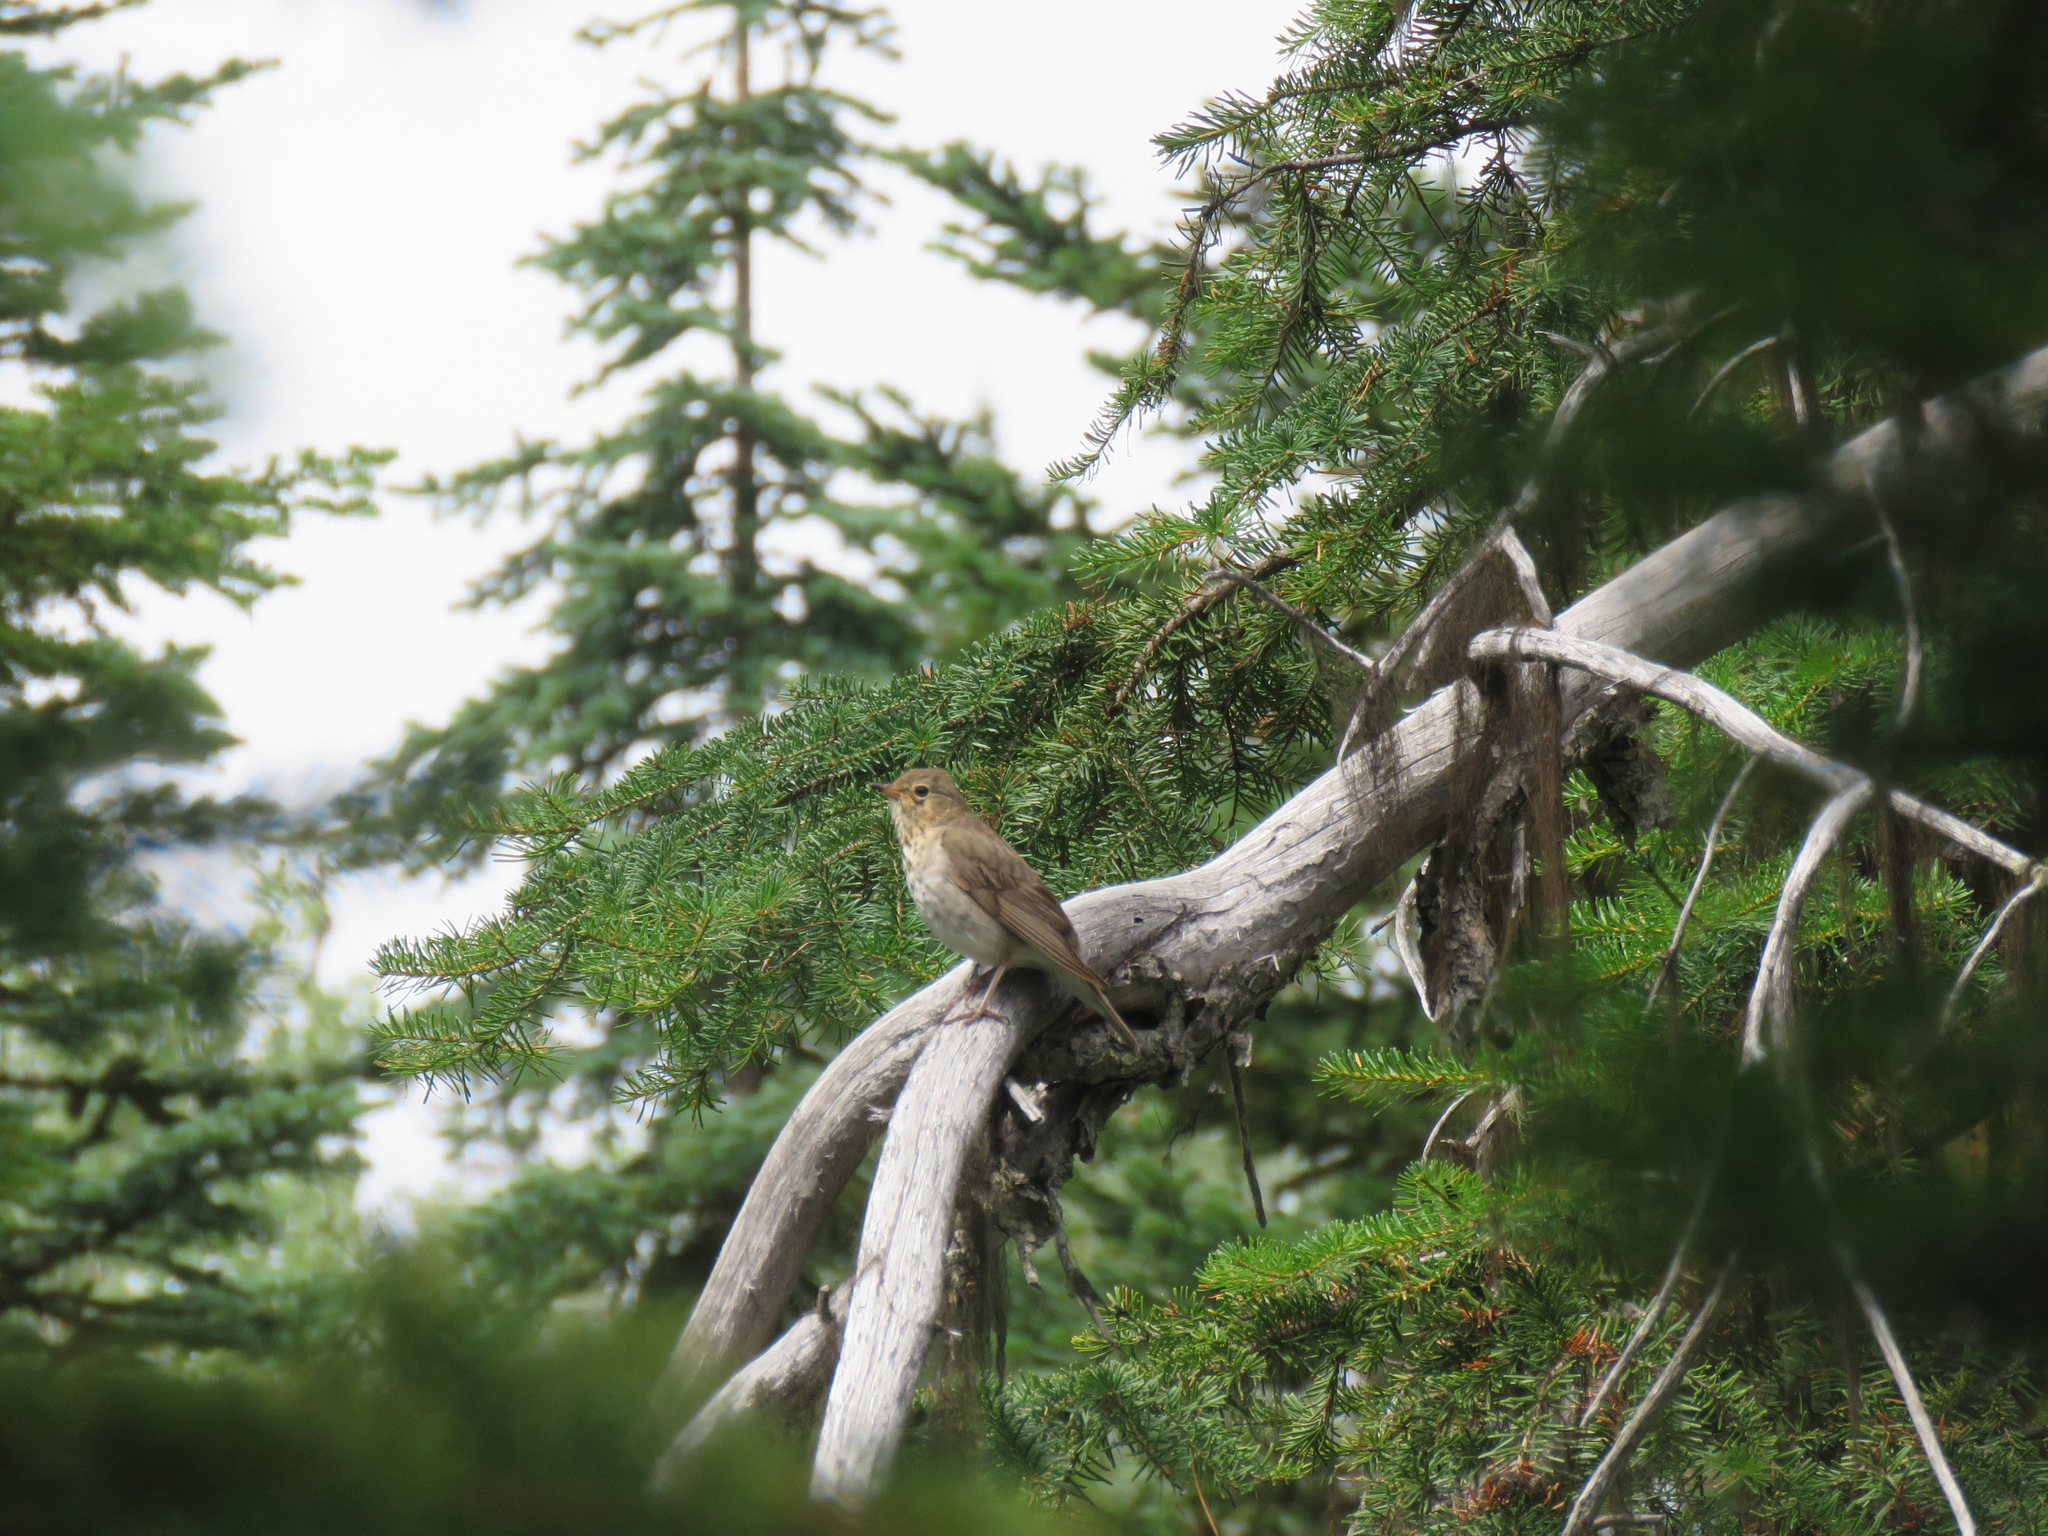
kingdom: Animalia
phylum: Chordata
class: Aves
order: Passeriformes
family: Turdidae
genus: Catharus
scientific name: Catharus ustulatus
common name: Swainson's thrush
